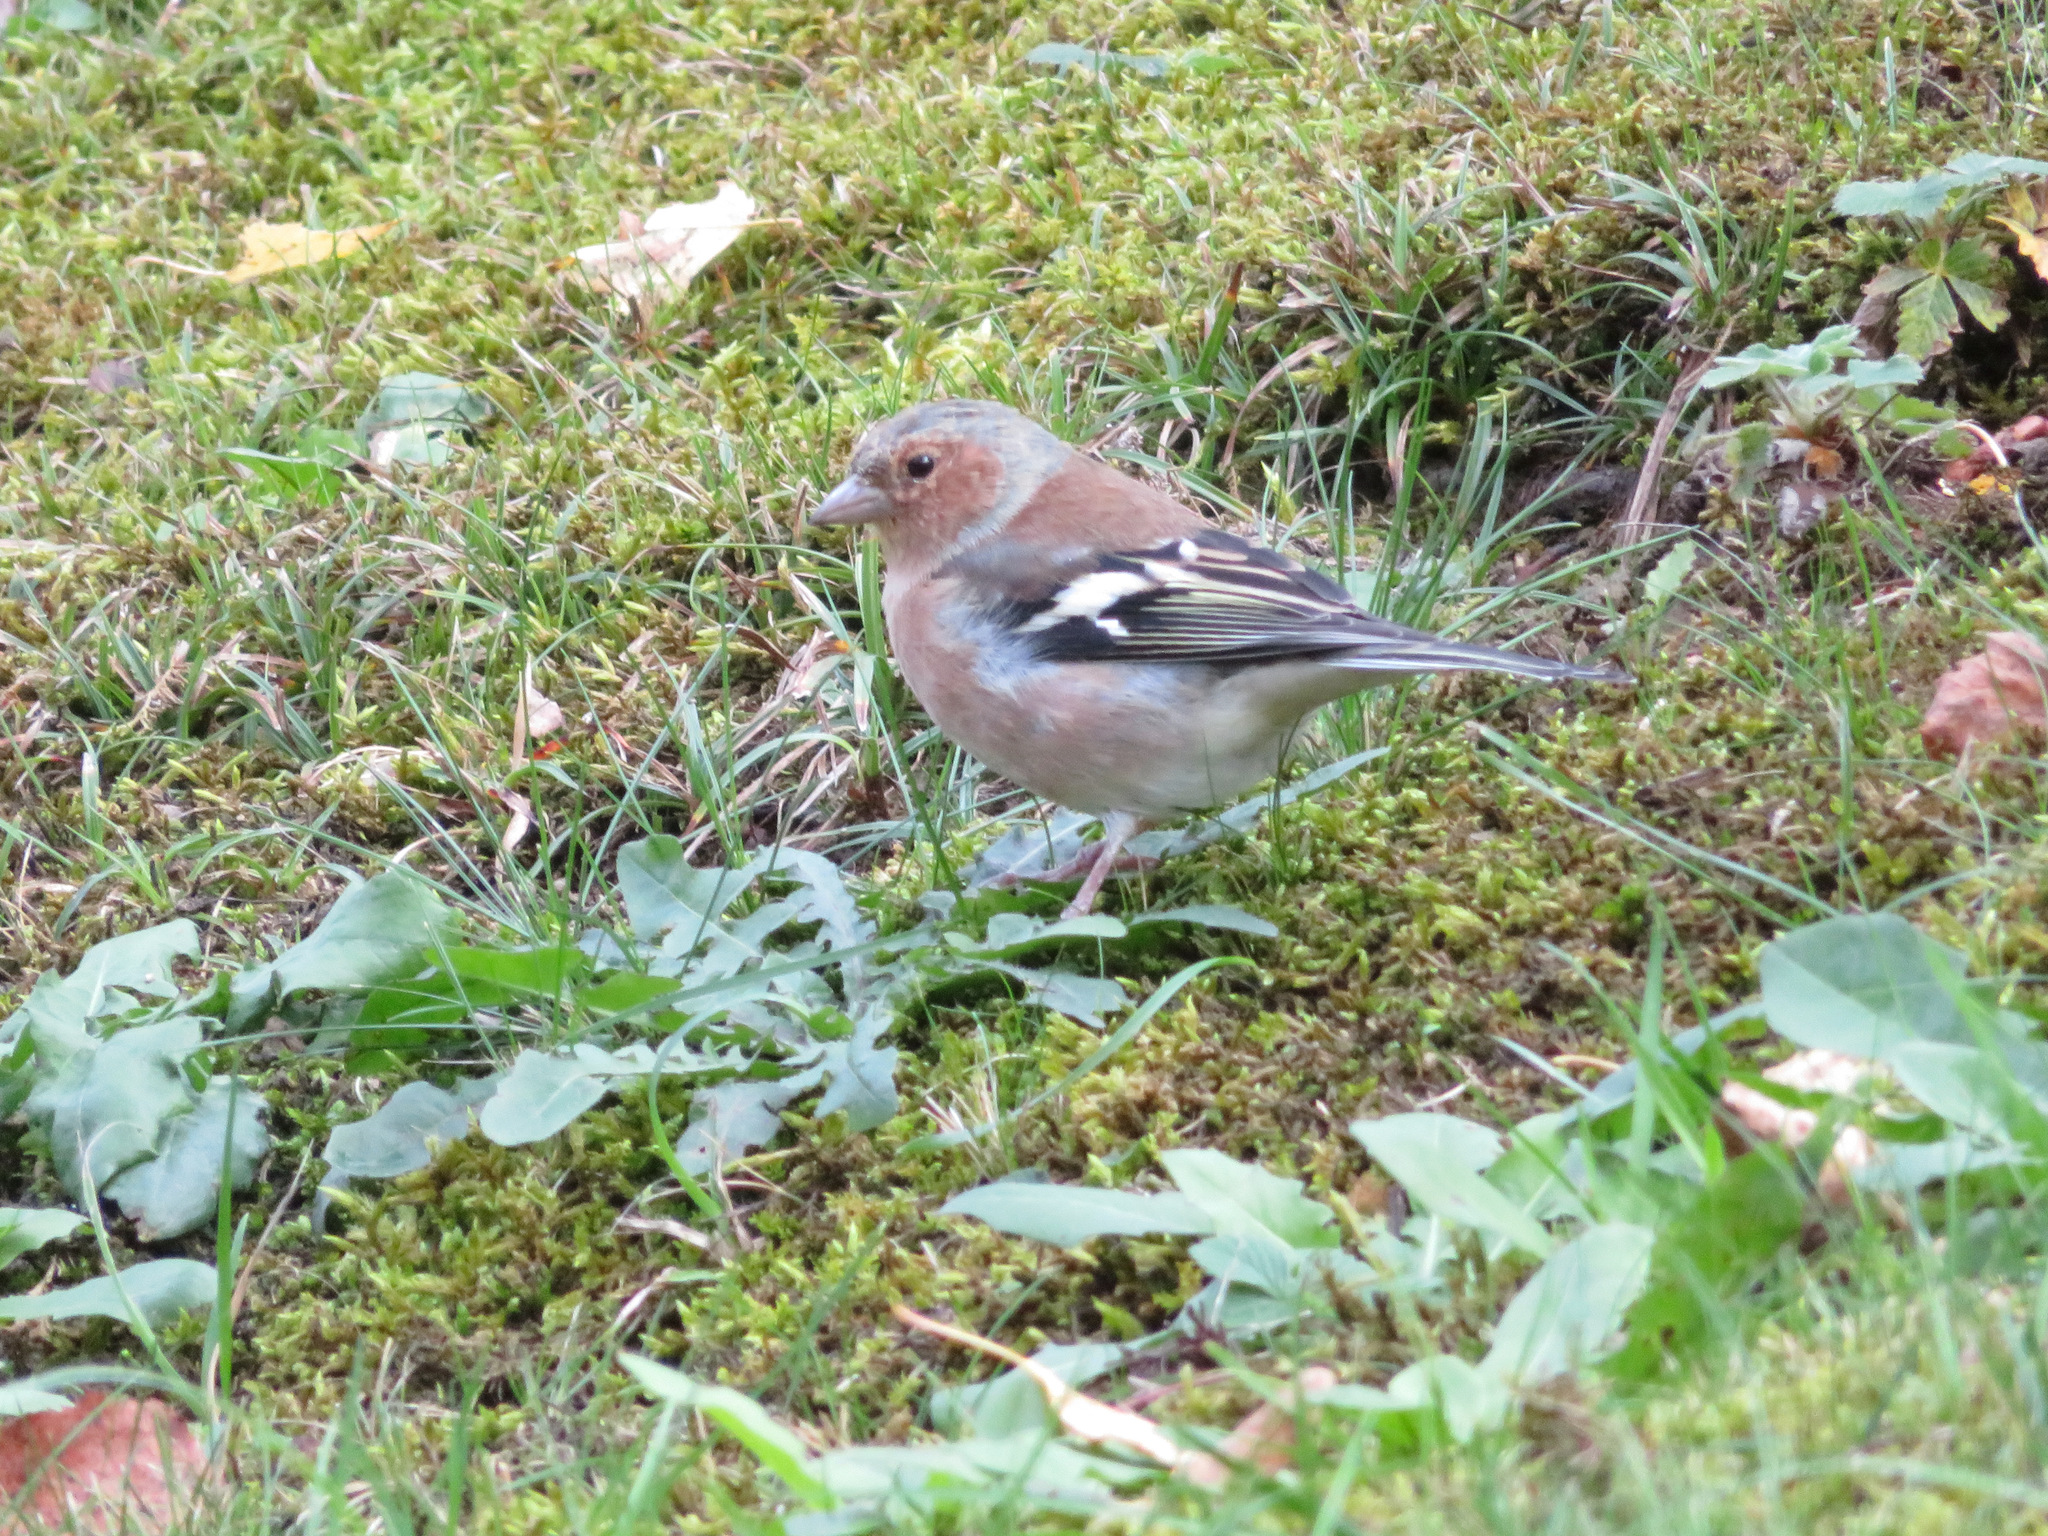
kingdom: Animalia
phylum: Chordata
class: Aves
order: Passeriformes
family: Fringillidae
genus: Fringilla
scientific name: Fringilla coelebs
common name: Common chaffinch
